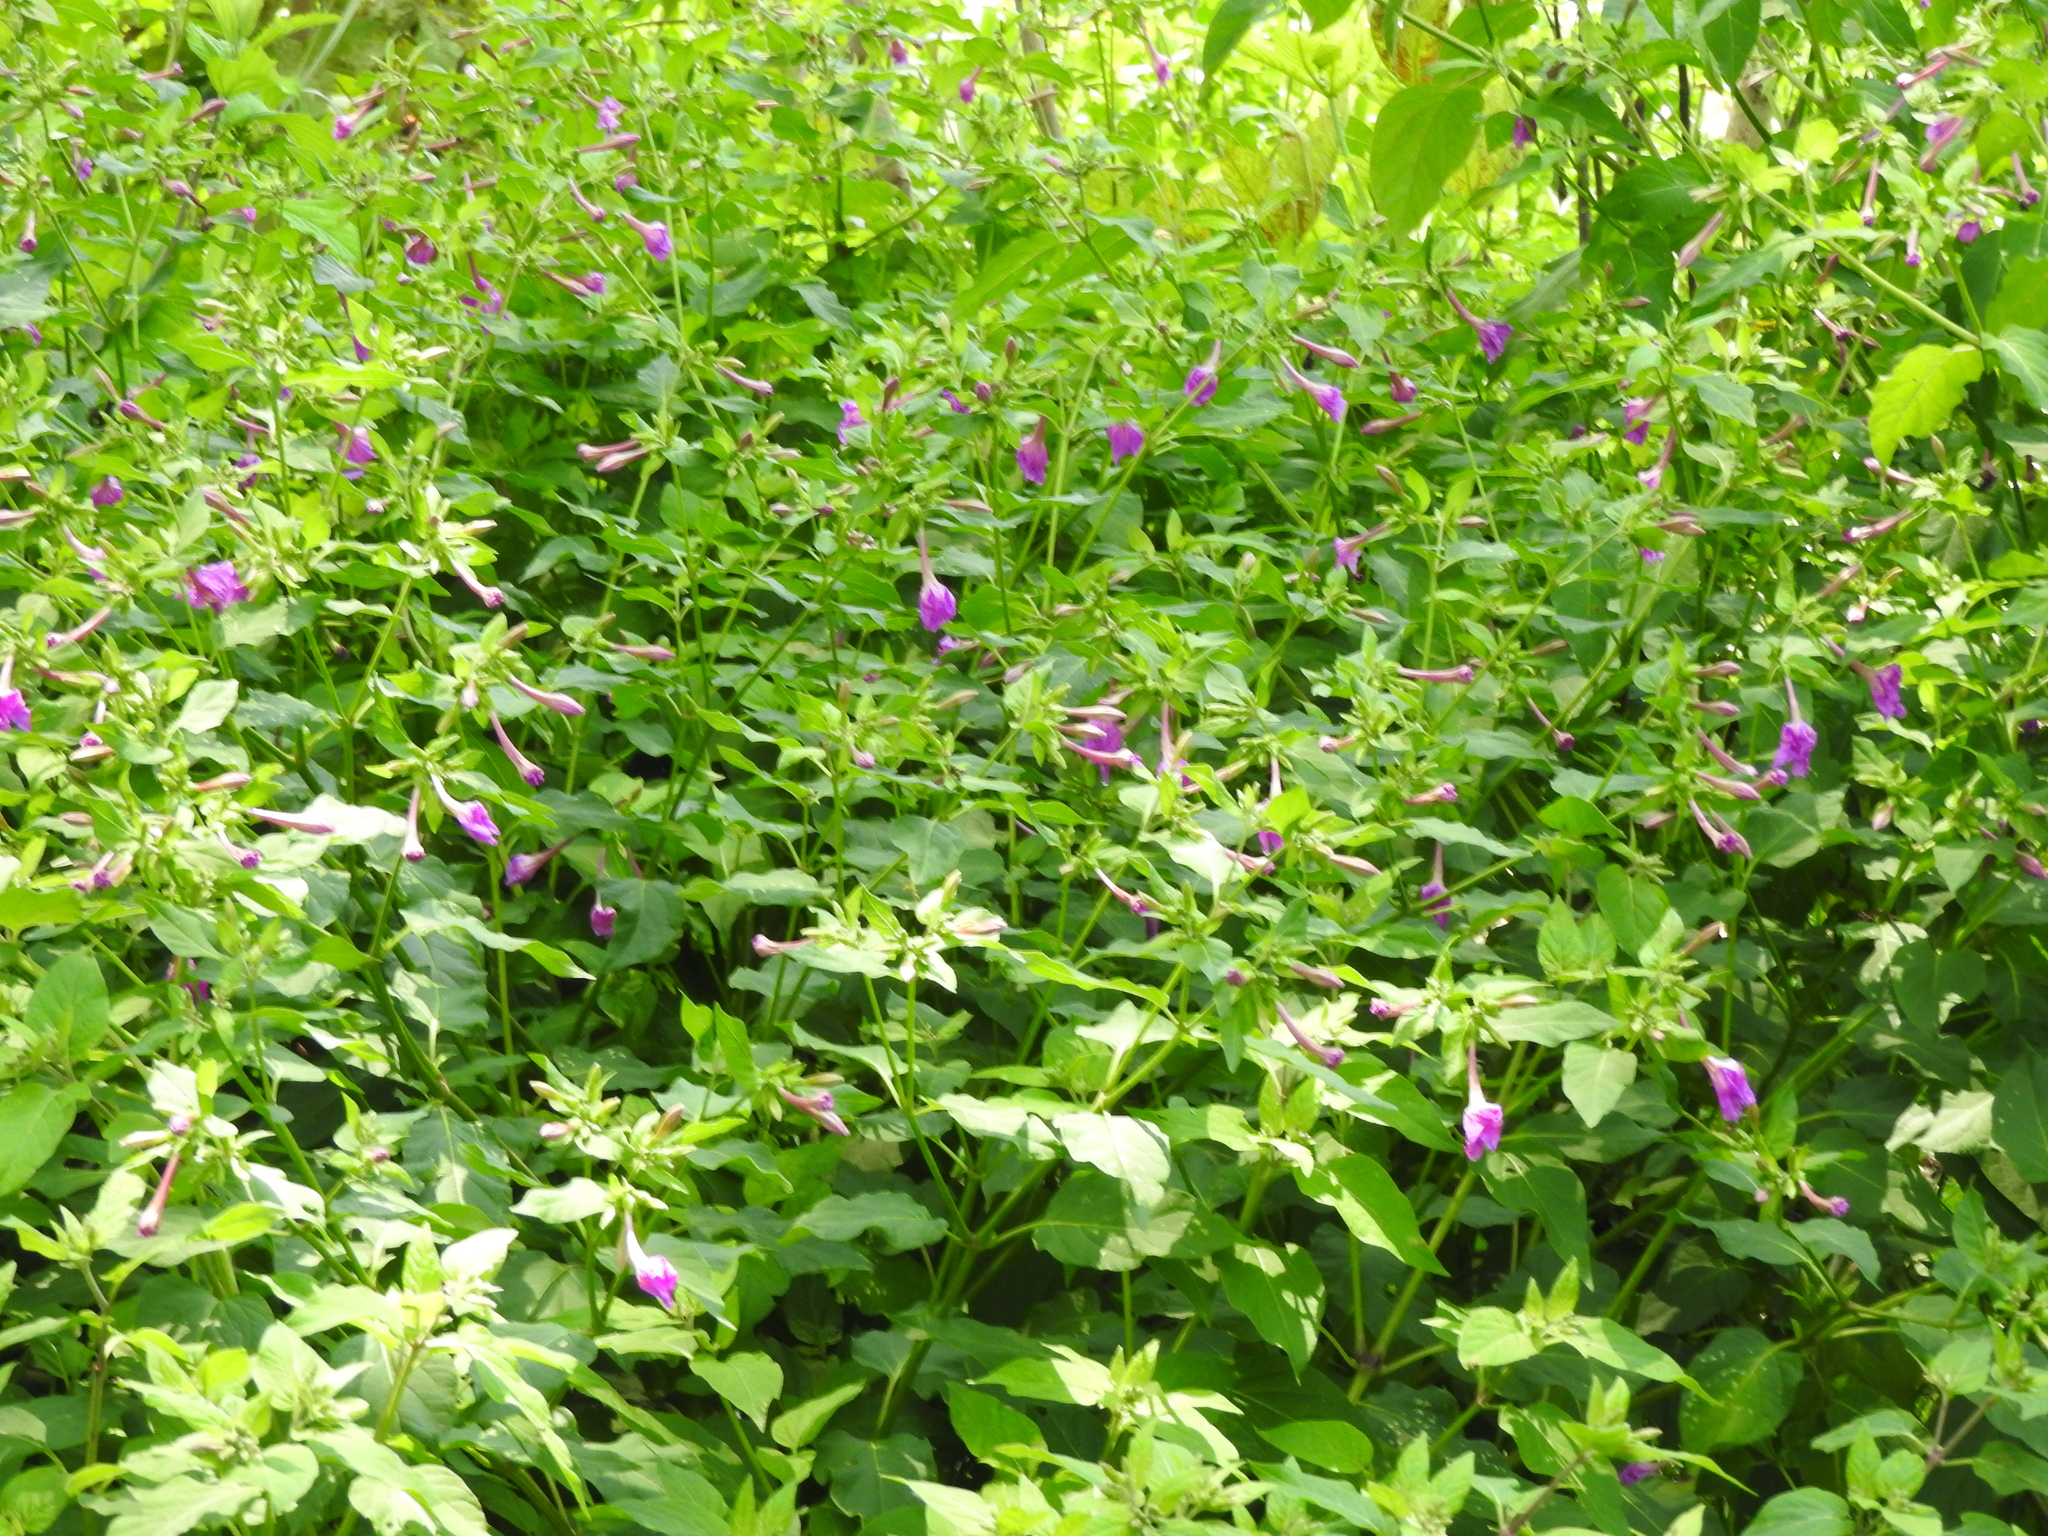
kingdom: Plantae
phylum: Tracheophyta
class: Magnoliopsida
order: Caryophyllales
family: Nyctaginaceae
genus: Mirabilis
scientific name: Mirabilis jalapa
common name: Marvel-of-peru
